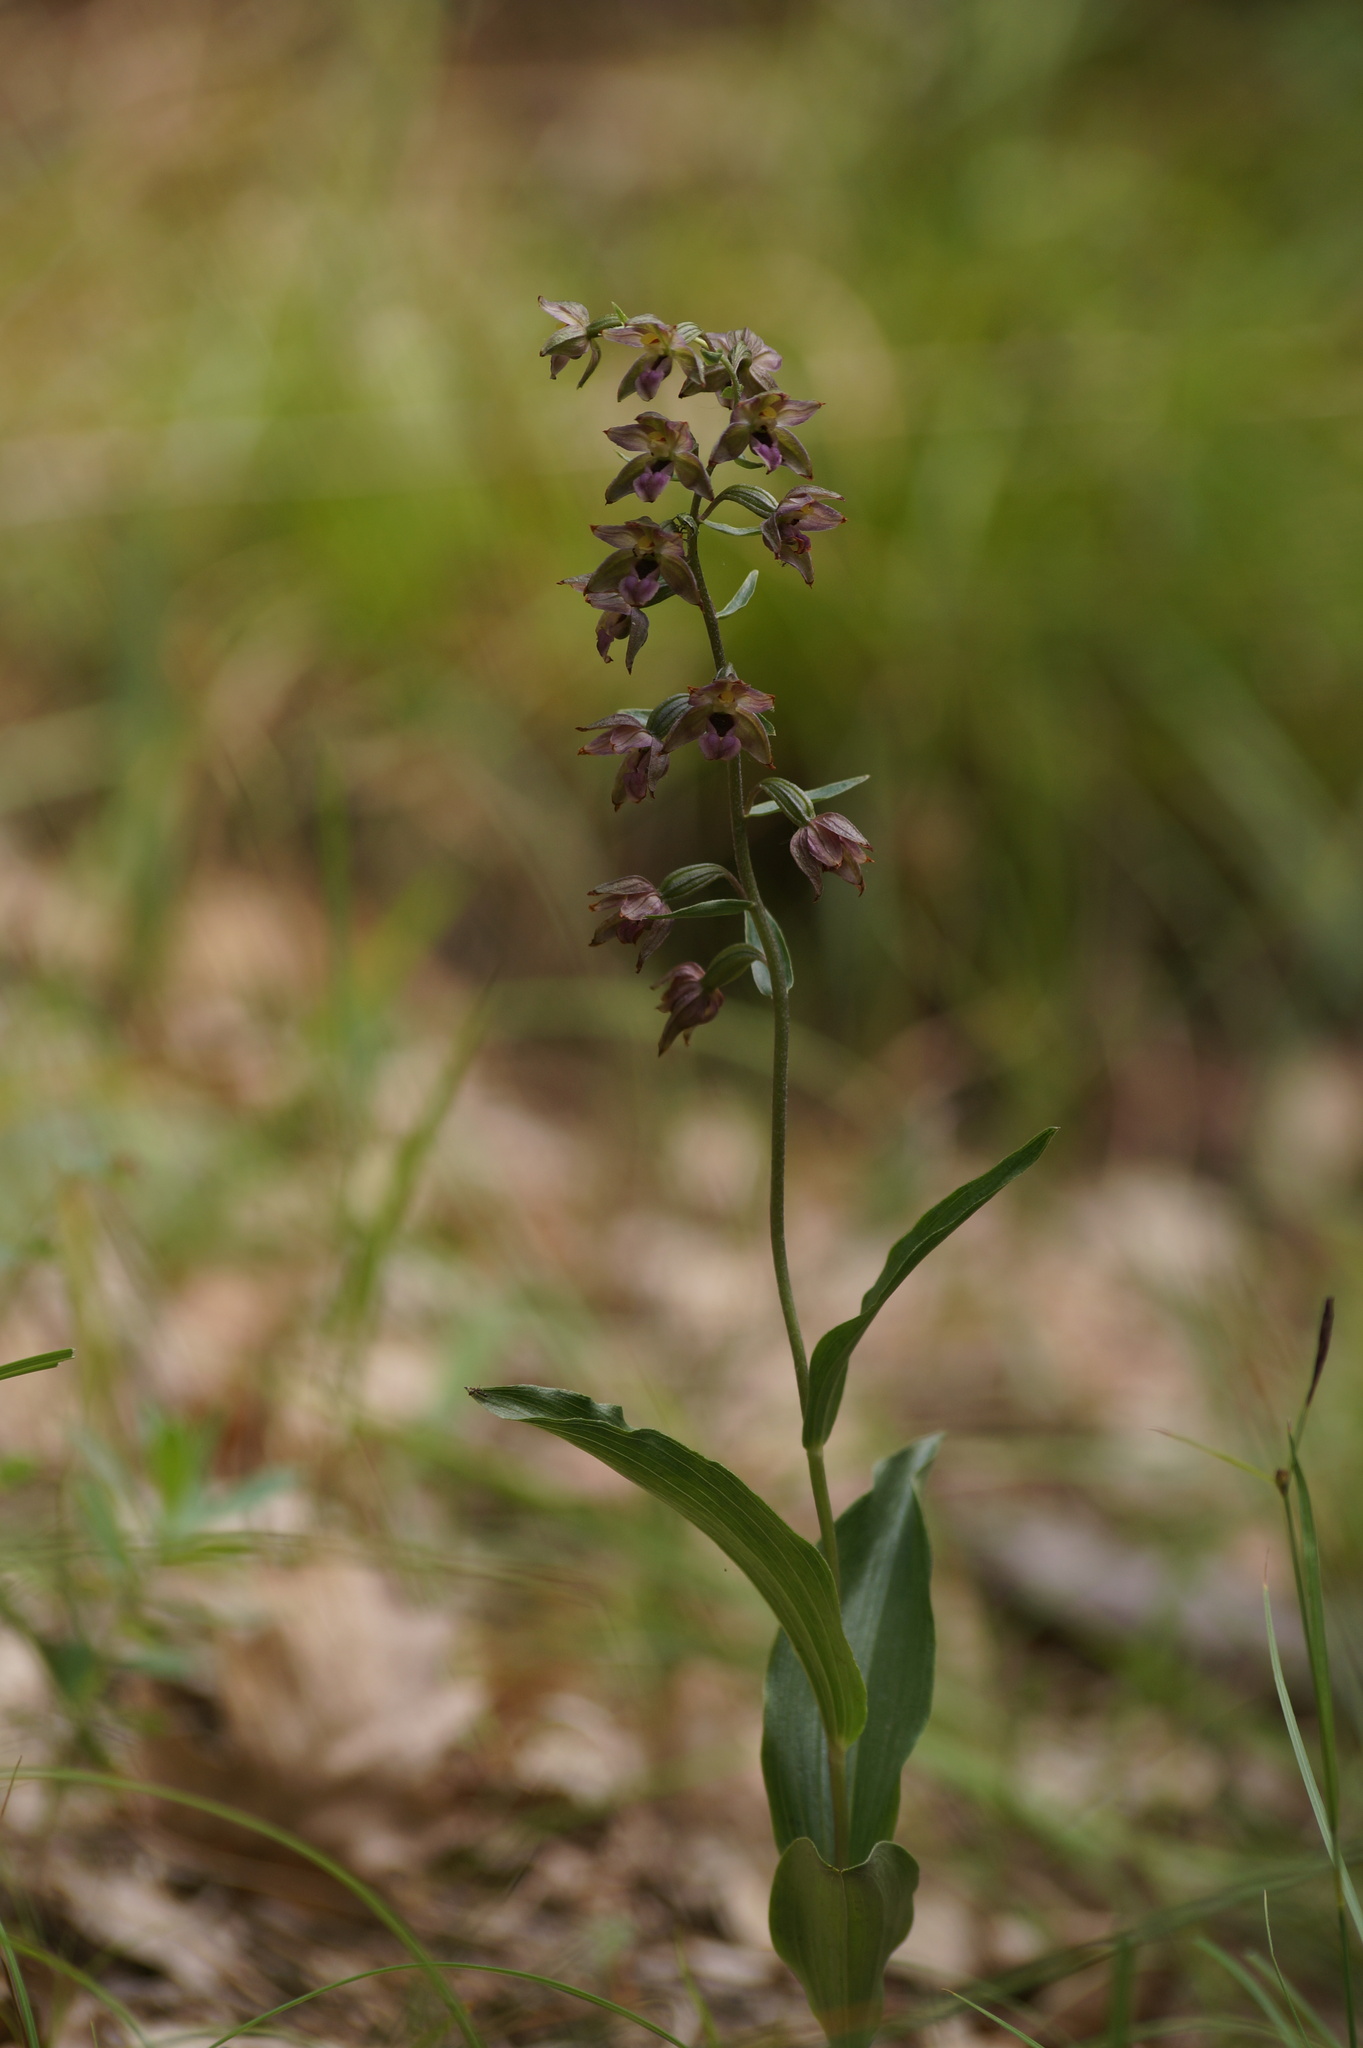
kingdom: Plantae
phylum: Tracheophyta
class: Liliopsida
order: Asparagales
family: Orchidaceae
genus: Epipactis
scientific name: Epipactis helleborine
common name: Broad-leaved helleborine
